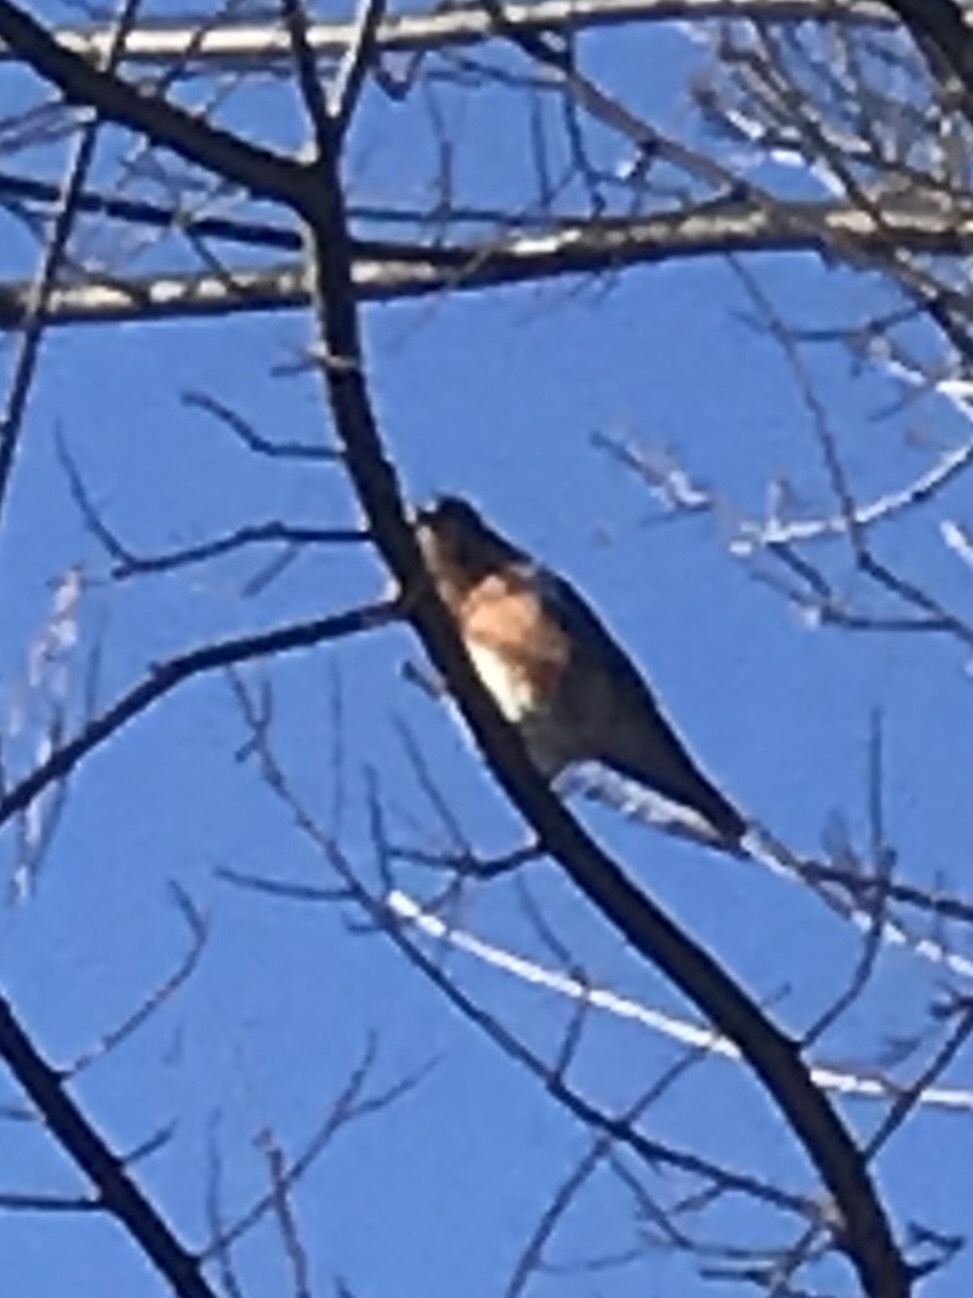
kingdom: Animalia
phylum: Chordata
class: Aves
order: Passeriformes
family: Turdidae
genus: Sialia
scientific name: Sialia sialis
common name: Eastern bluebird
